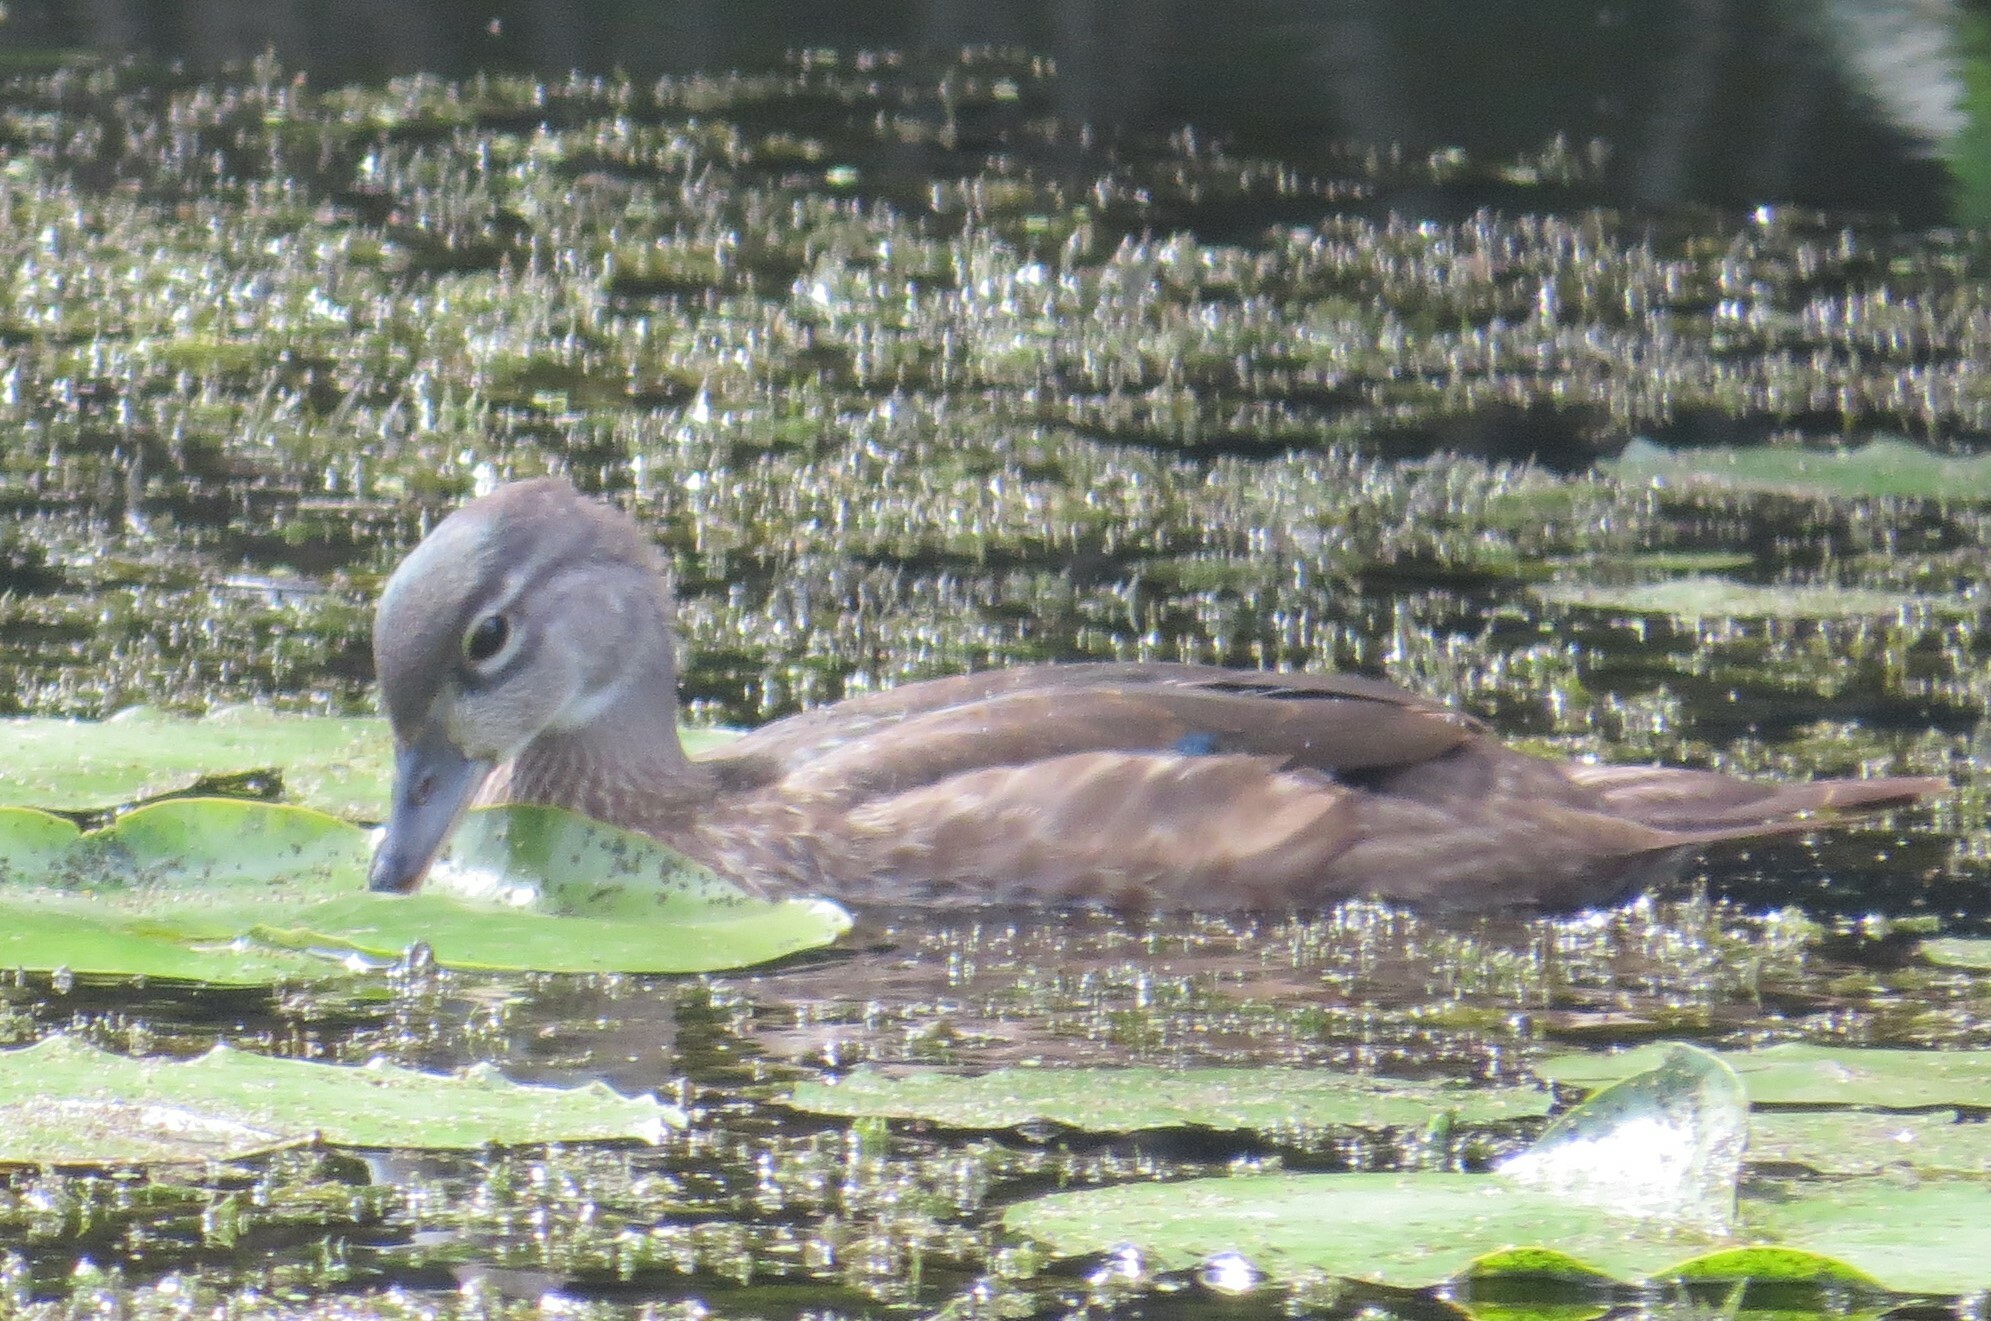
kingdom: Animalia
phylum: Chordata
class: Aves
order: Anseriformes
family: Anatidae
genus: Aix
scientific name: Aix sponsa
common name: Wood duck
